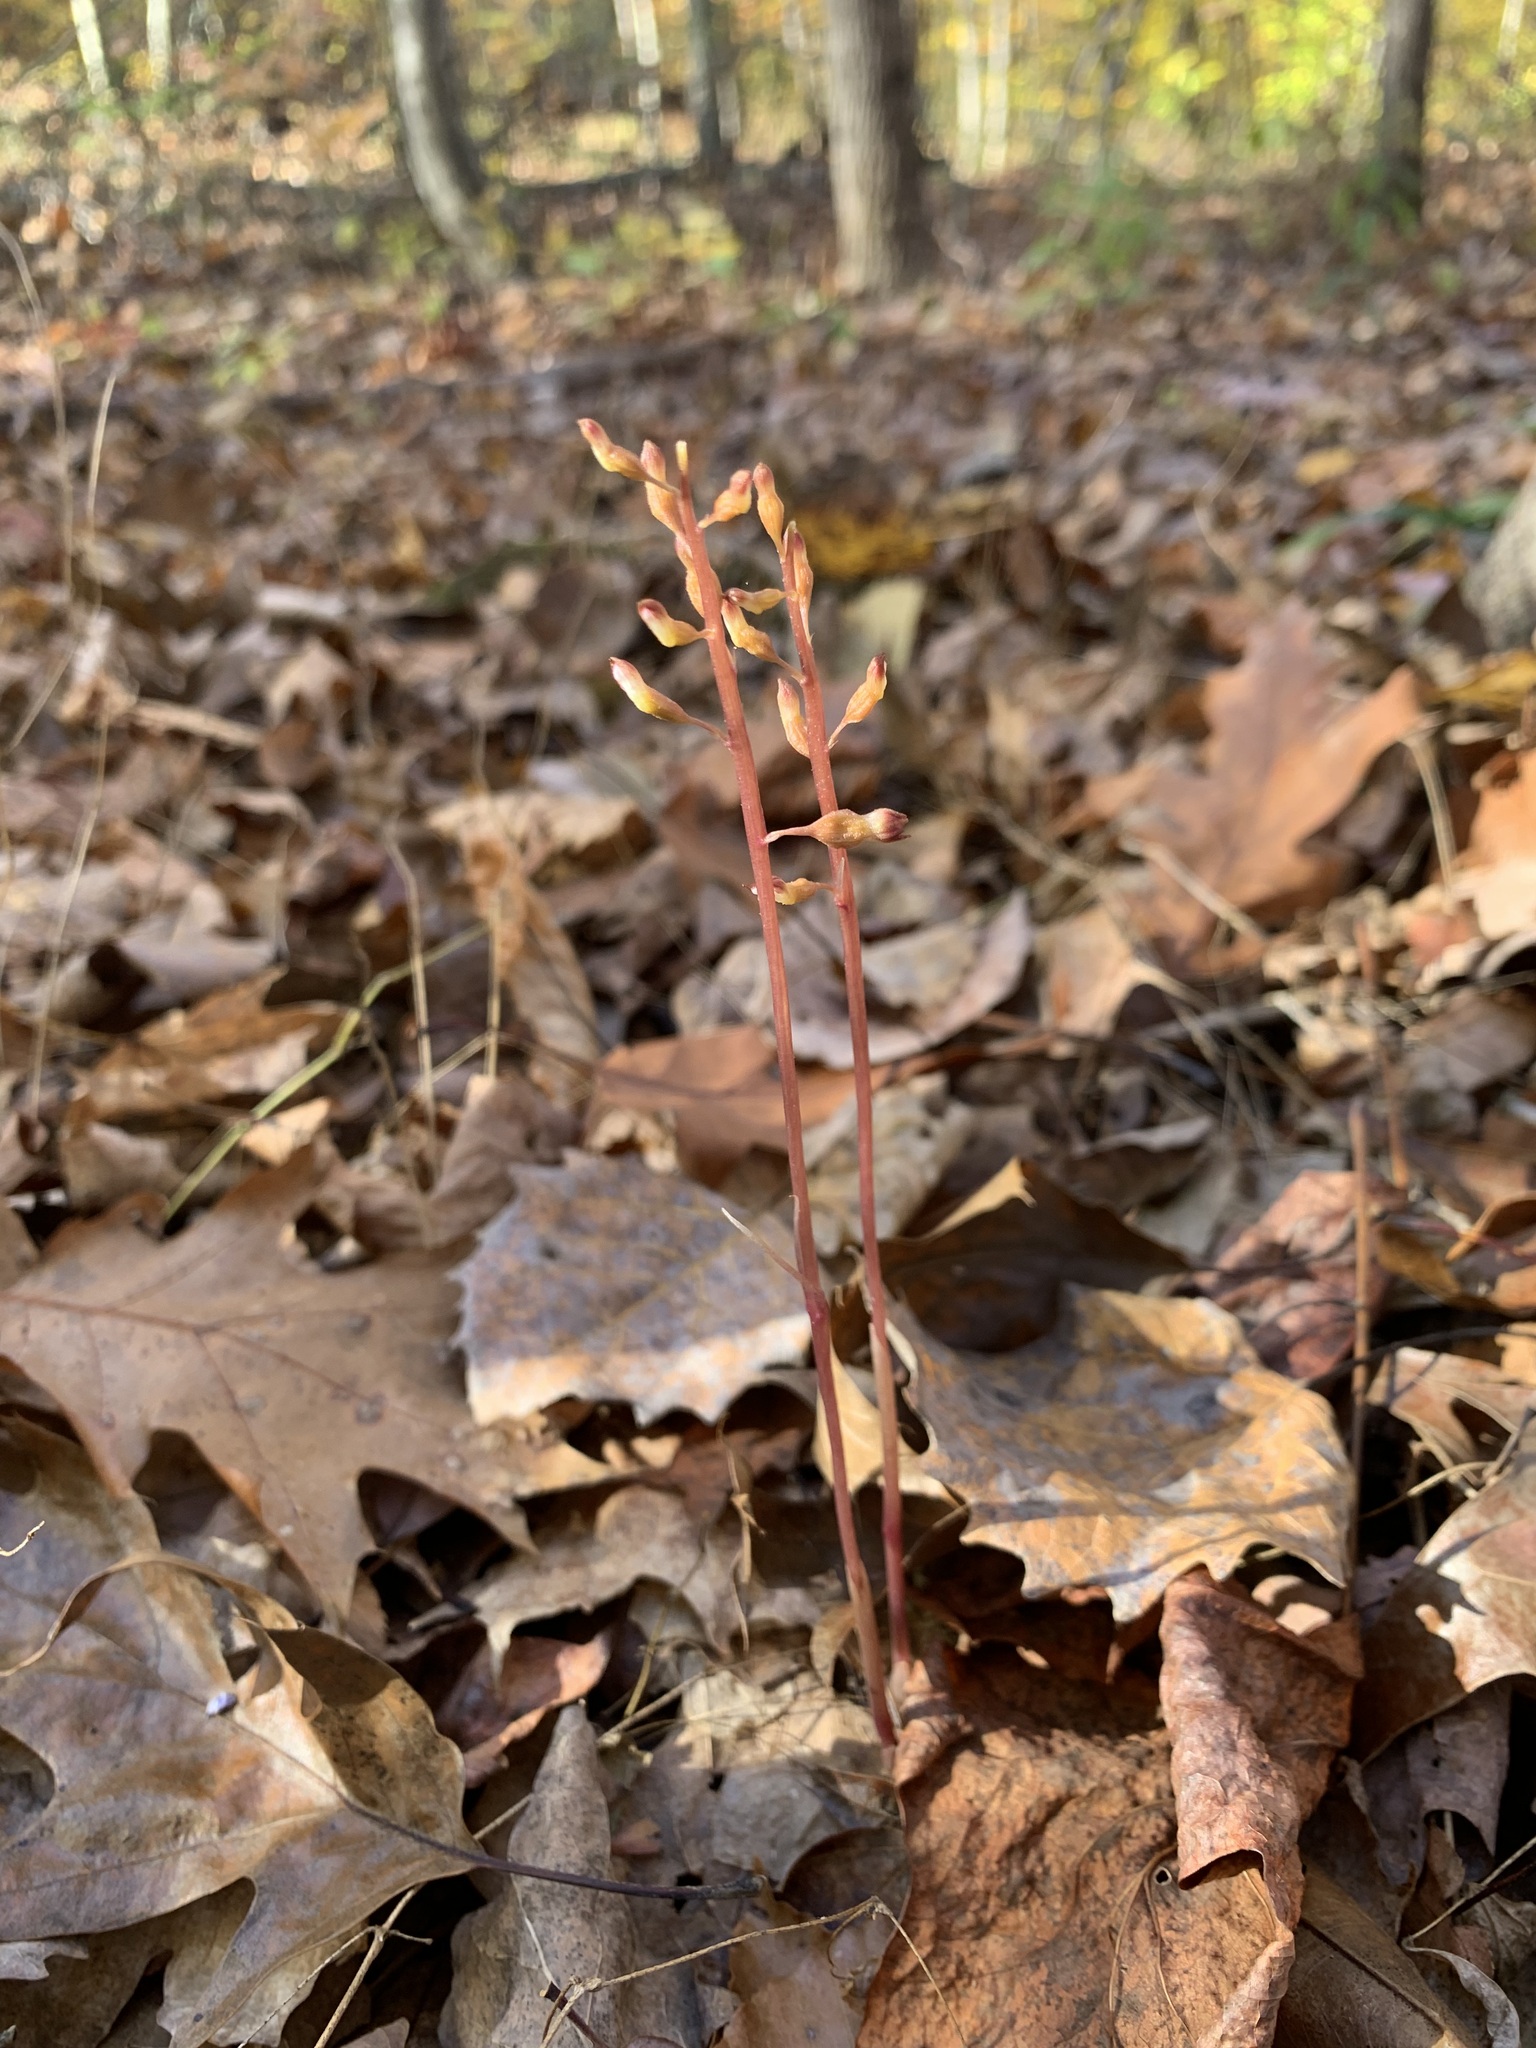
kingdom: Plantae
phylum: Tracheophyta
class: Liliopsida
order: Asparagales
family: Orchidaceae
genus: Corallorhiza
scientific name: Corallorhiza odontorhiza
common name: Autumn coralroot
